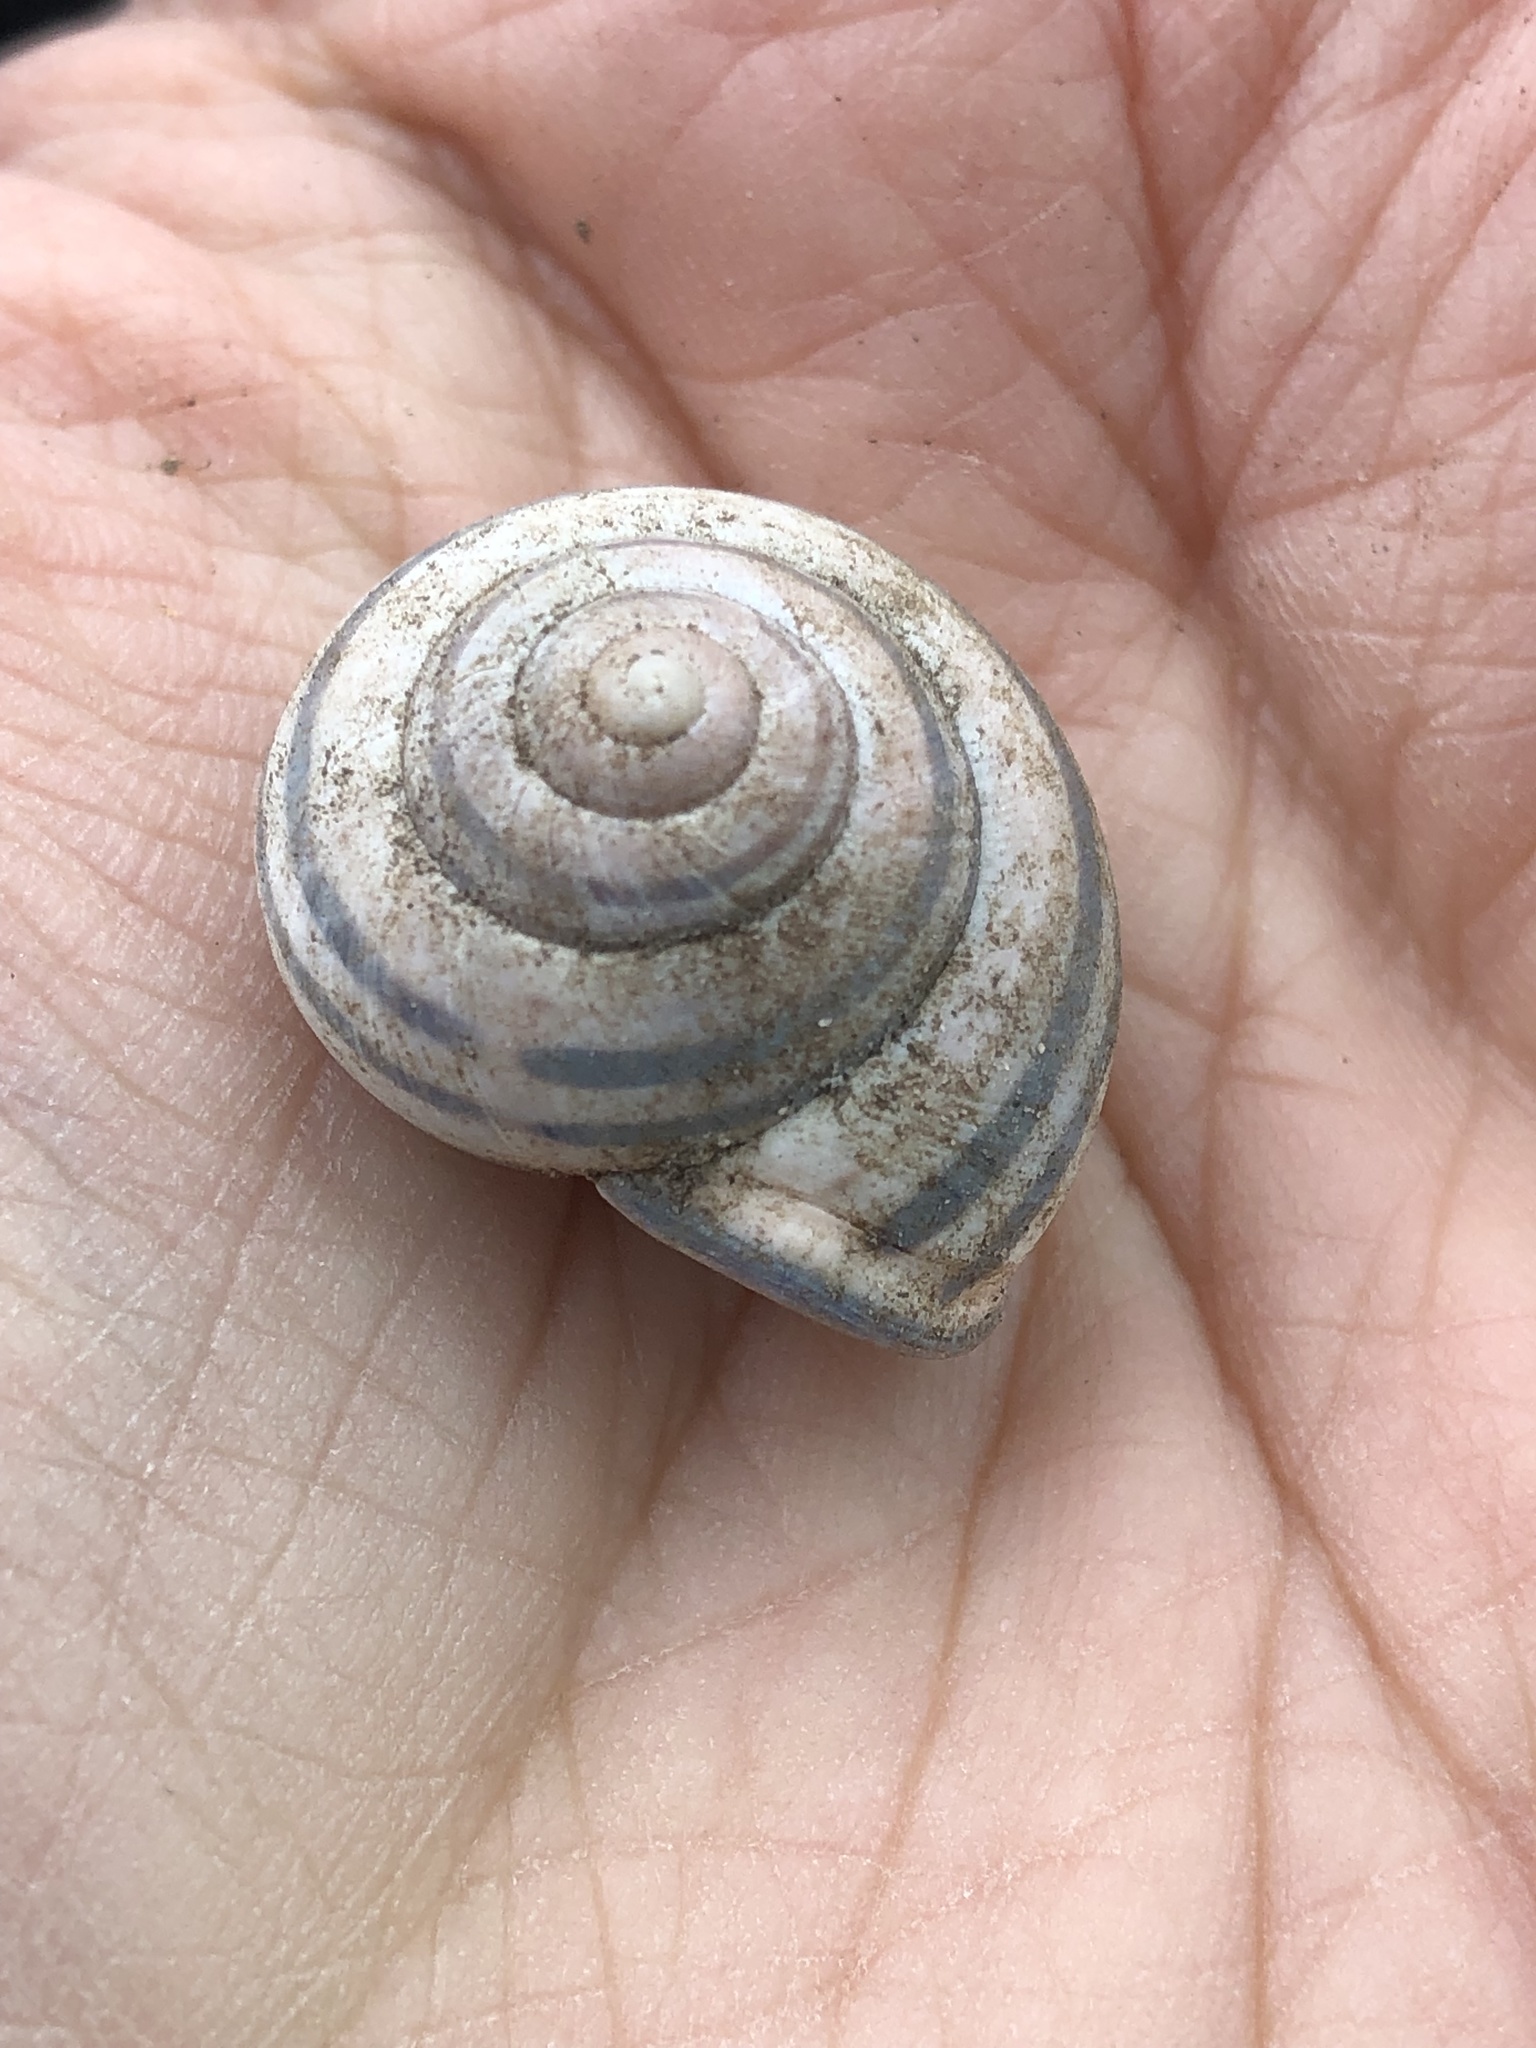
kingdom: Animalia
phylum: Mollusca
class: Gastropoda
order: Stylommatophora
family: Helicidae
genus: Cepaea
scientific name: Cepaea nemoralis
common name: Grovesnail
